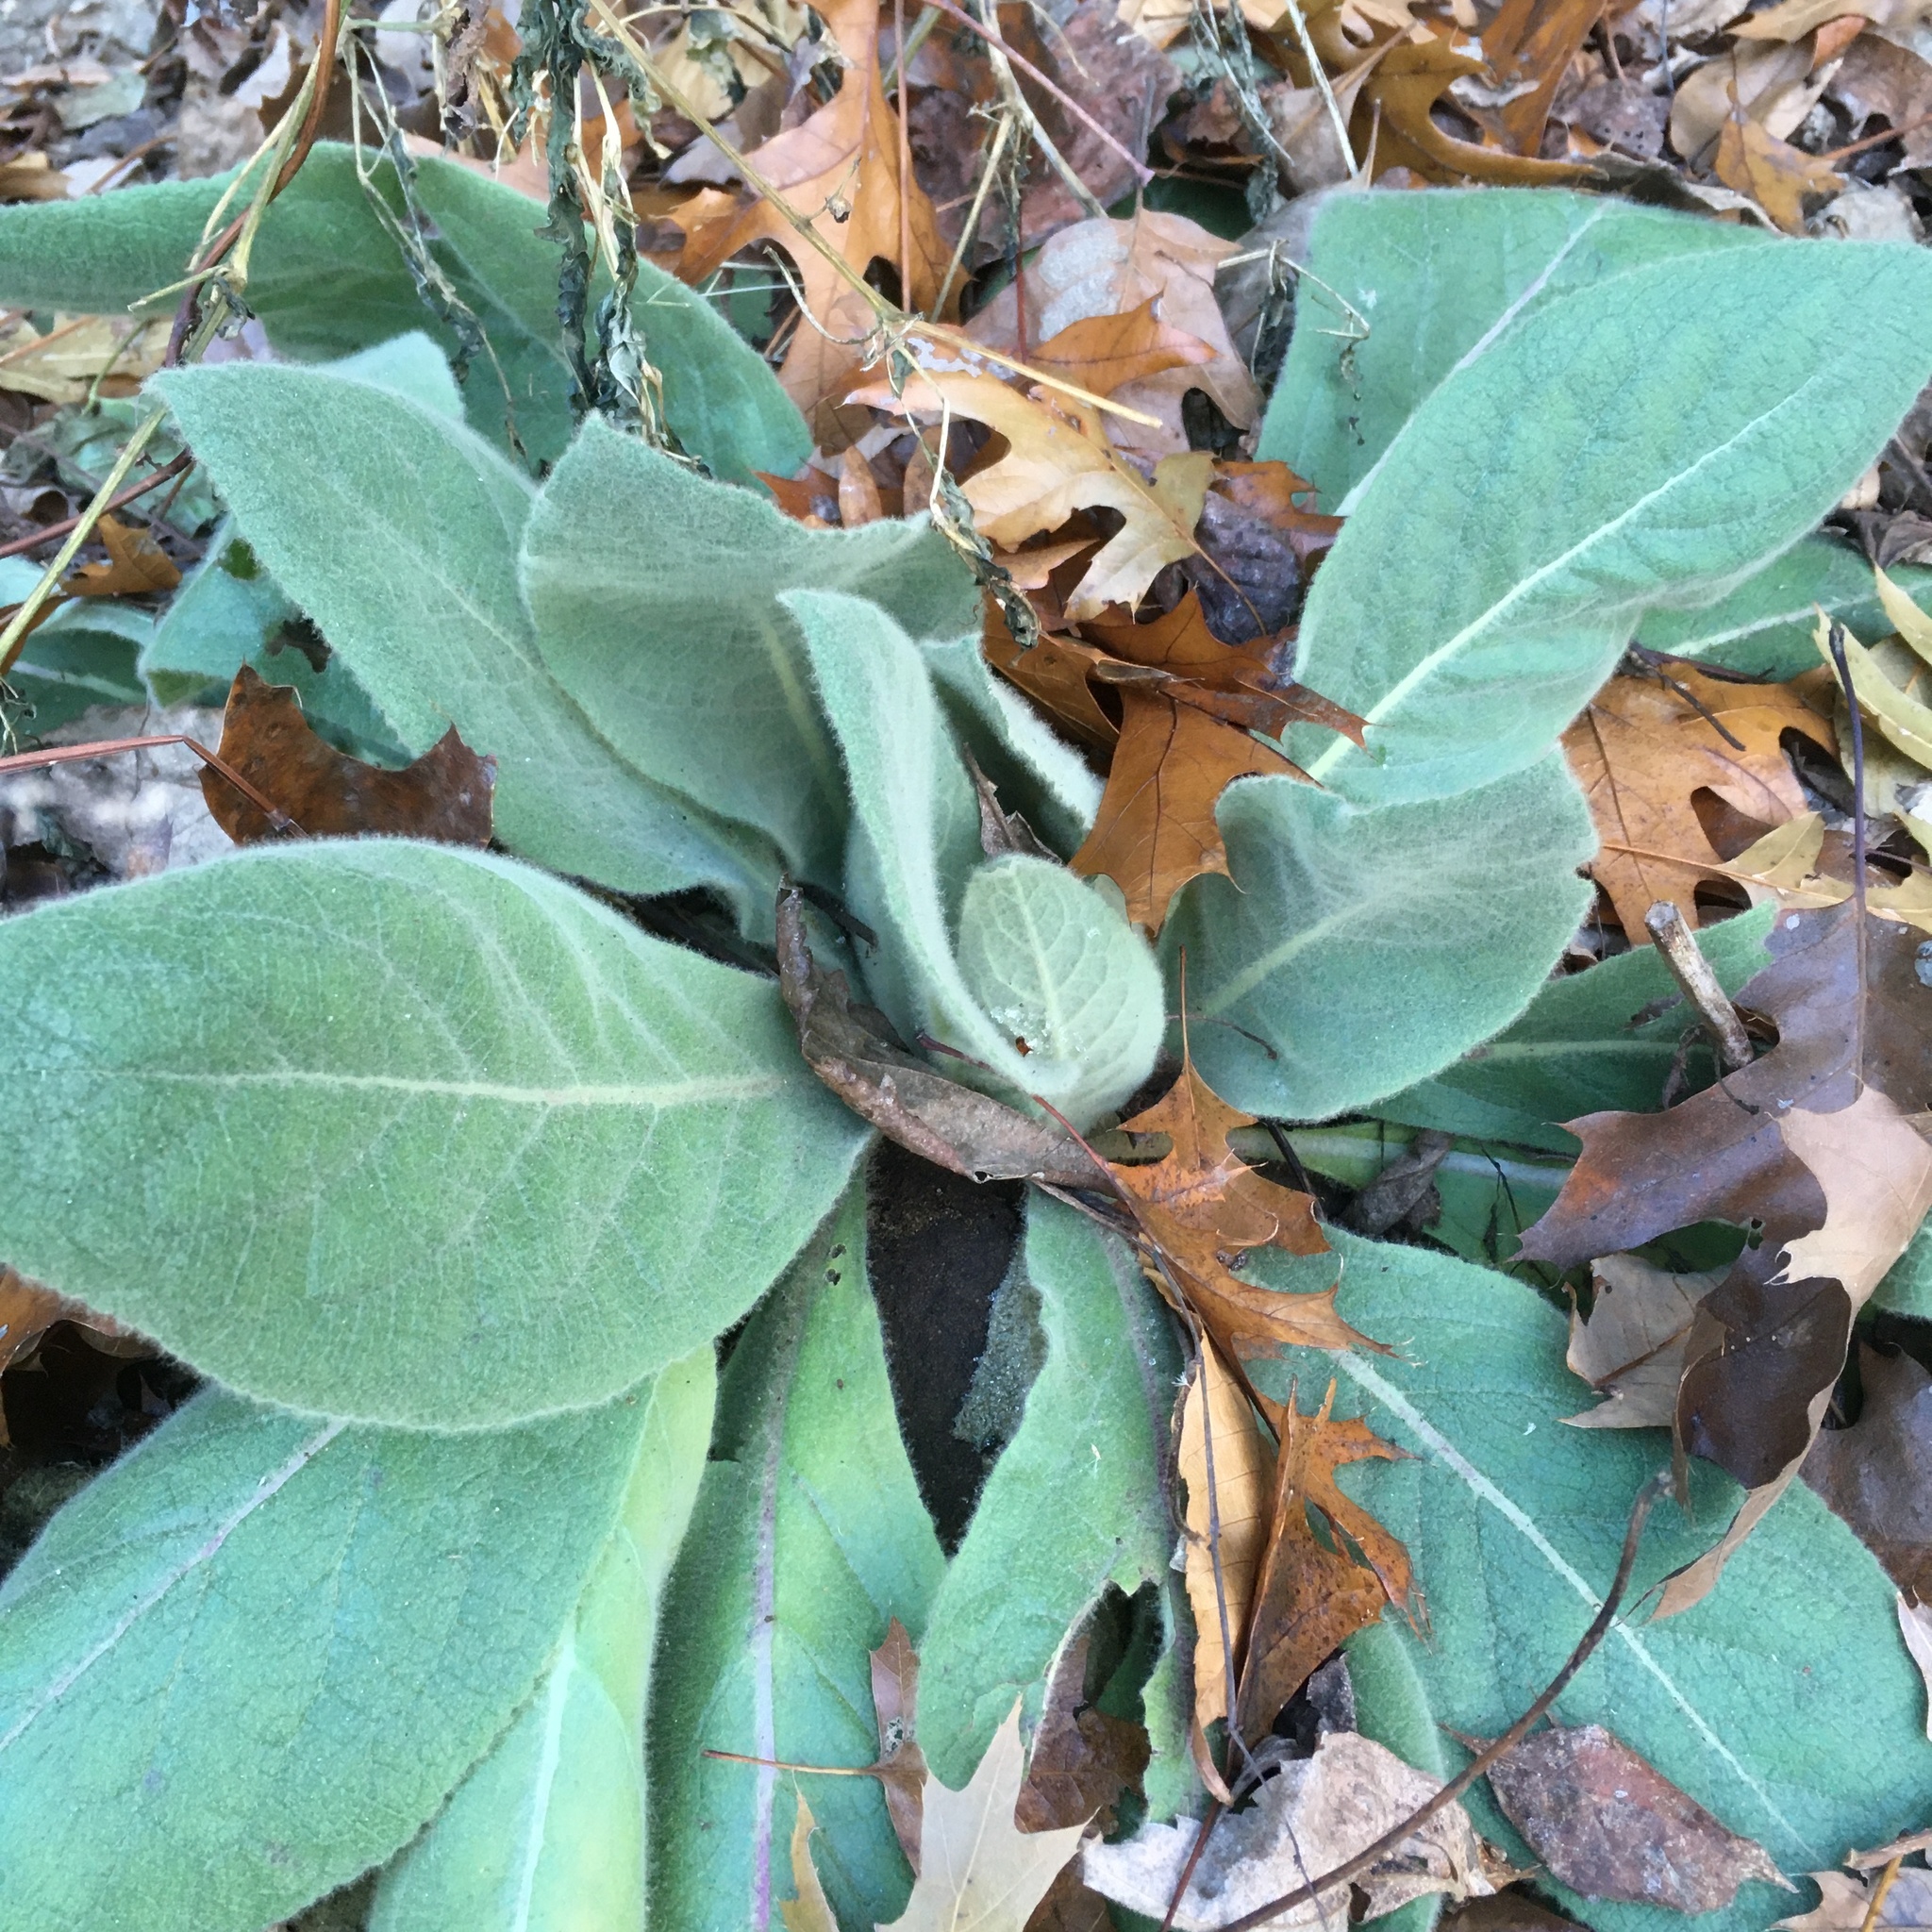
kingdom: Plantae
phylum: Tracheophyta
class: Magnoliopsida
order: Lamiales
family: Scrophulariaceae
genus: Verbascum
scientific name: Verbascum thapsus
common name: Common mullein
